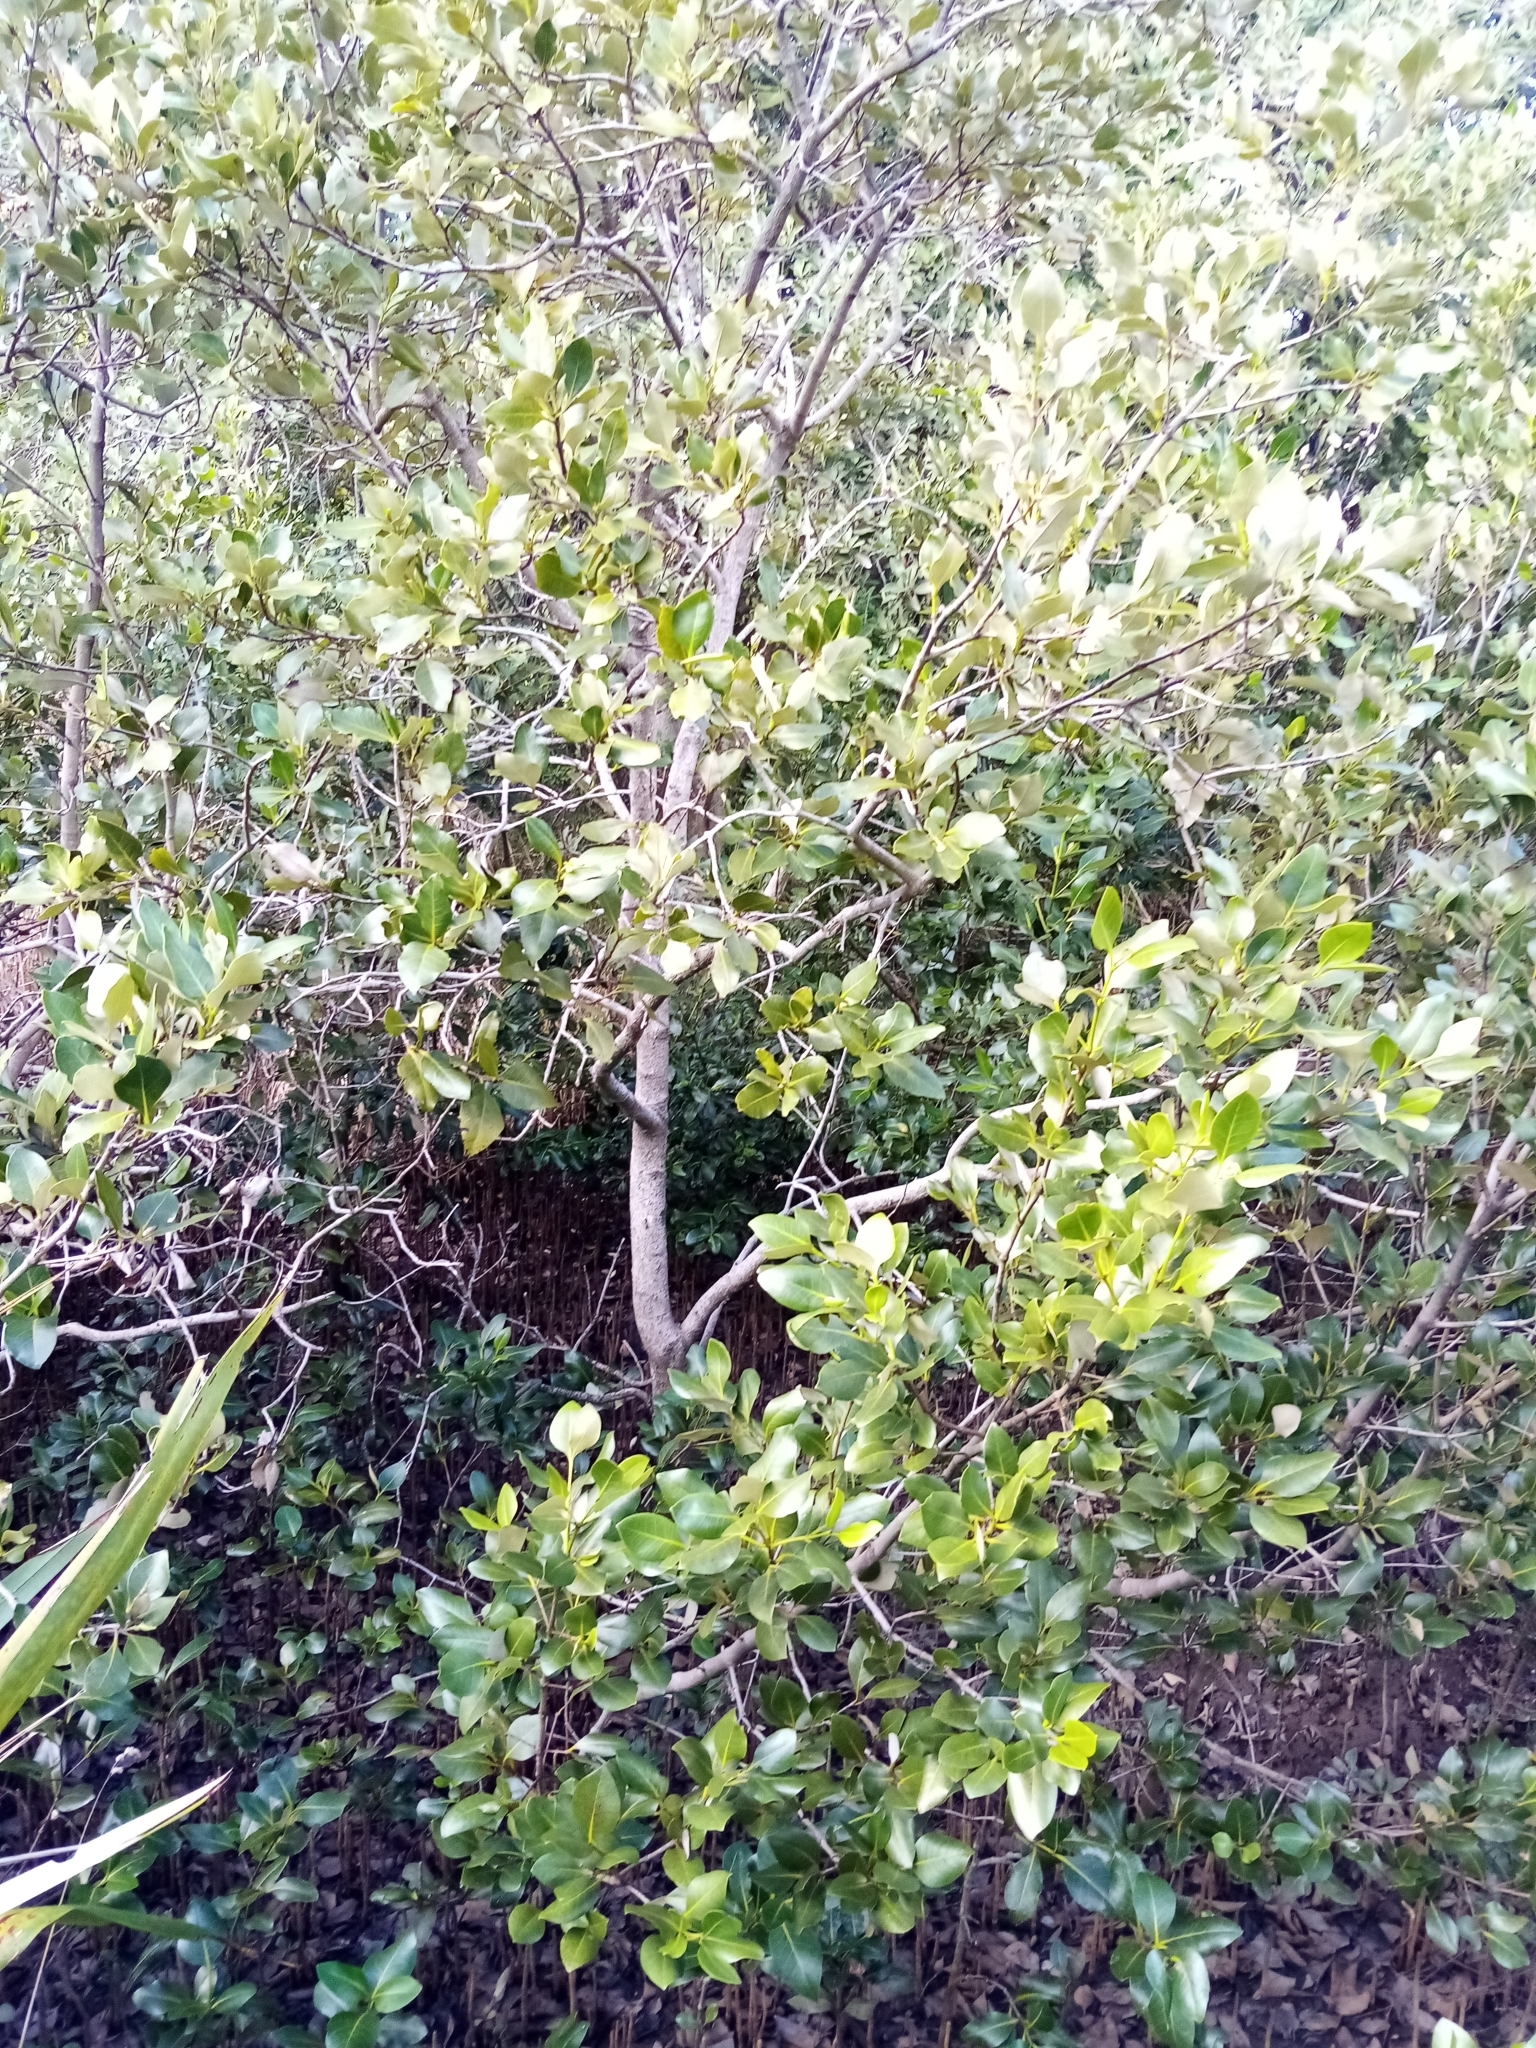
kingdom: Plantae
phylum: Tracheophyta
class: Magnoliopsida
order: Lamiales
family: Acanthaceae
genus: Avicennia
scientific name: Avicennia marina
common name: Gray mangrove
